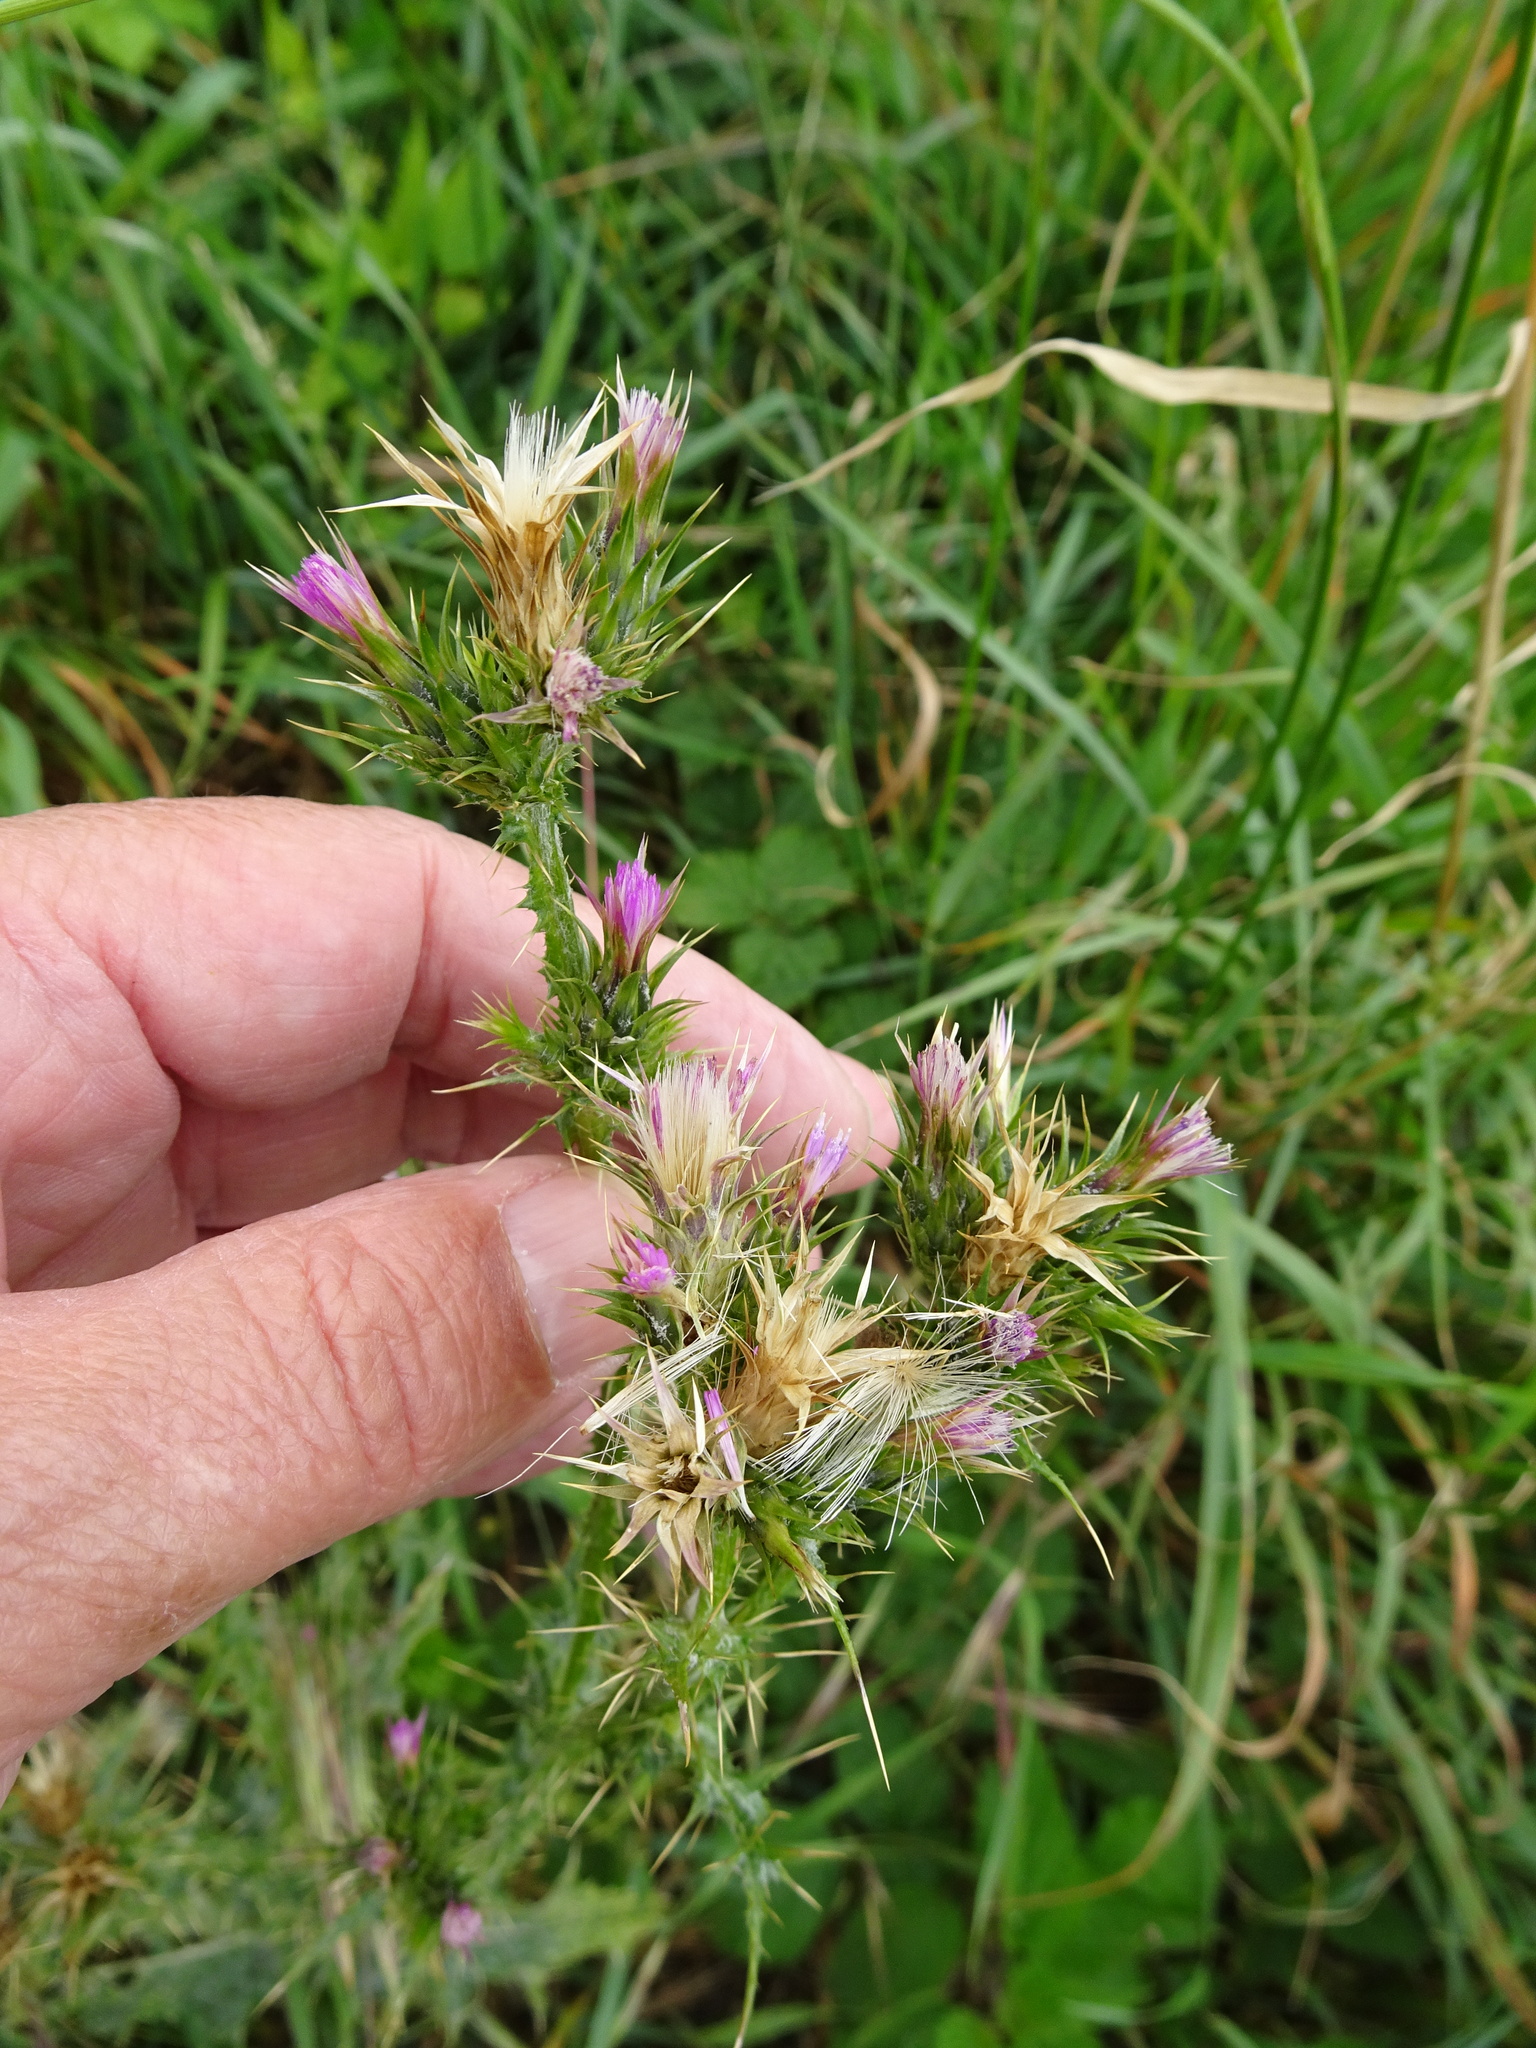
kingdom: Plantae
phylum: Tracheophyta
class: Magnoliopsida
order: Asterales
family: Asteraceae
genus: Carduus
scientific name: Carduus tenuiflorus
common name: Slender thistle
